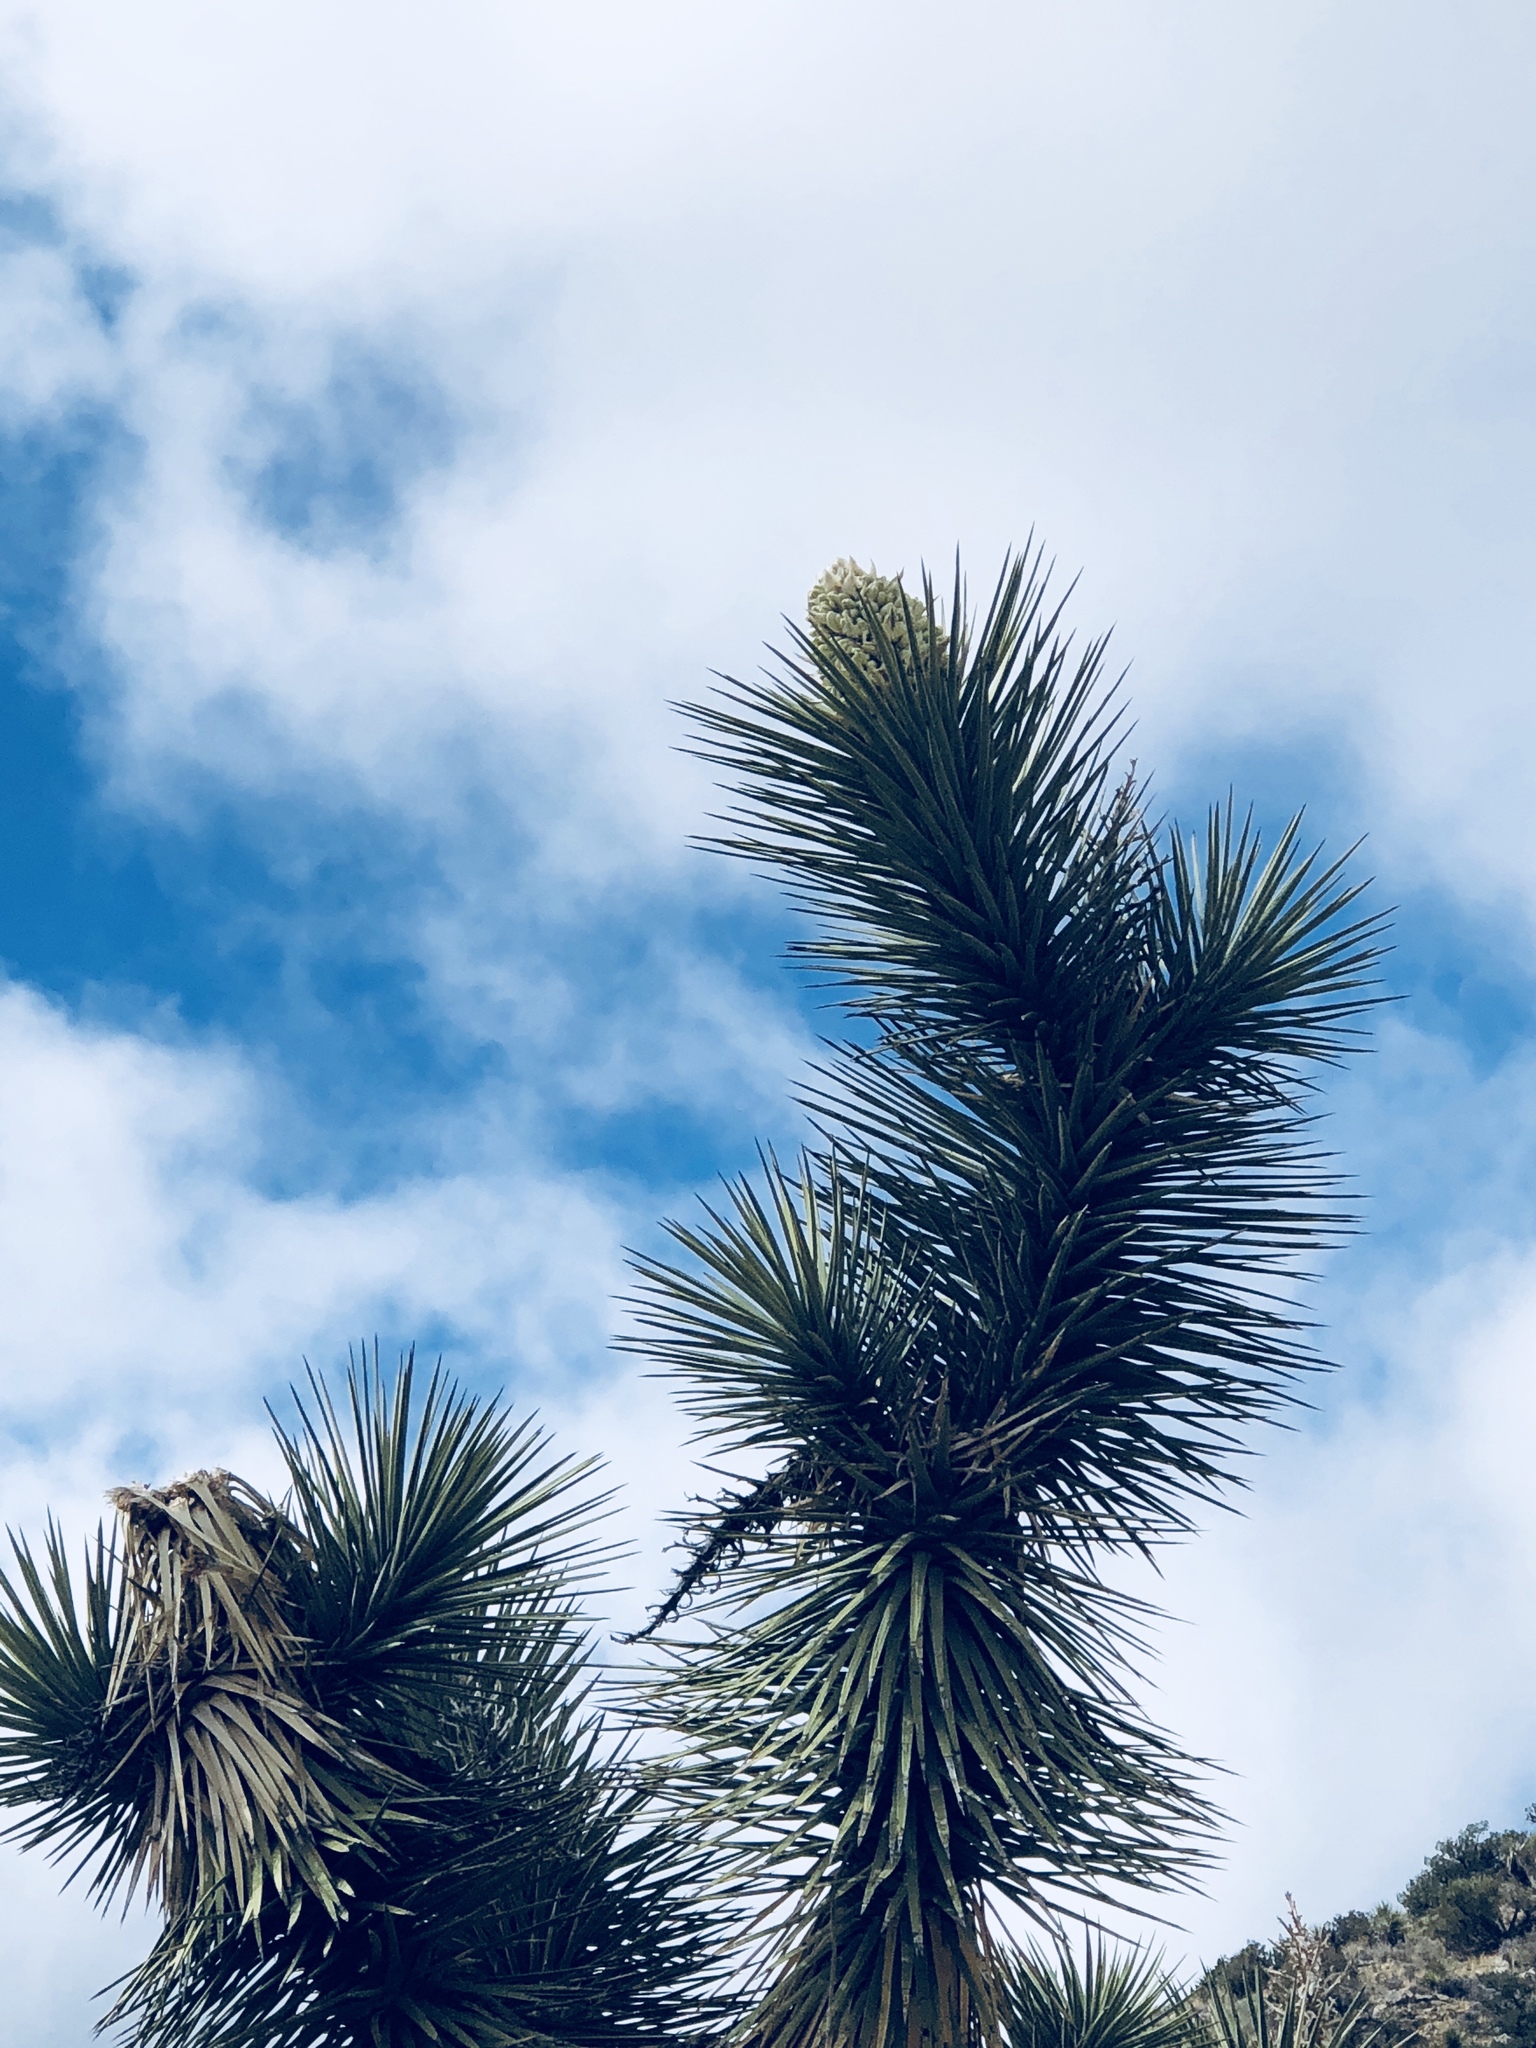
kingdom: Plantae
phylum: Tracheophyta
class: Liliopsida
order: Asparagales
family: Asparagaceae
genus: Yucca
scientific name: Yucca brevifolia
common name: Joshua tree
